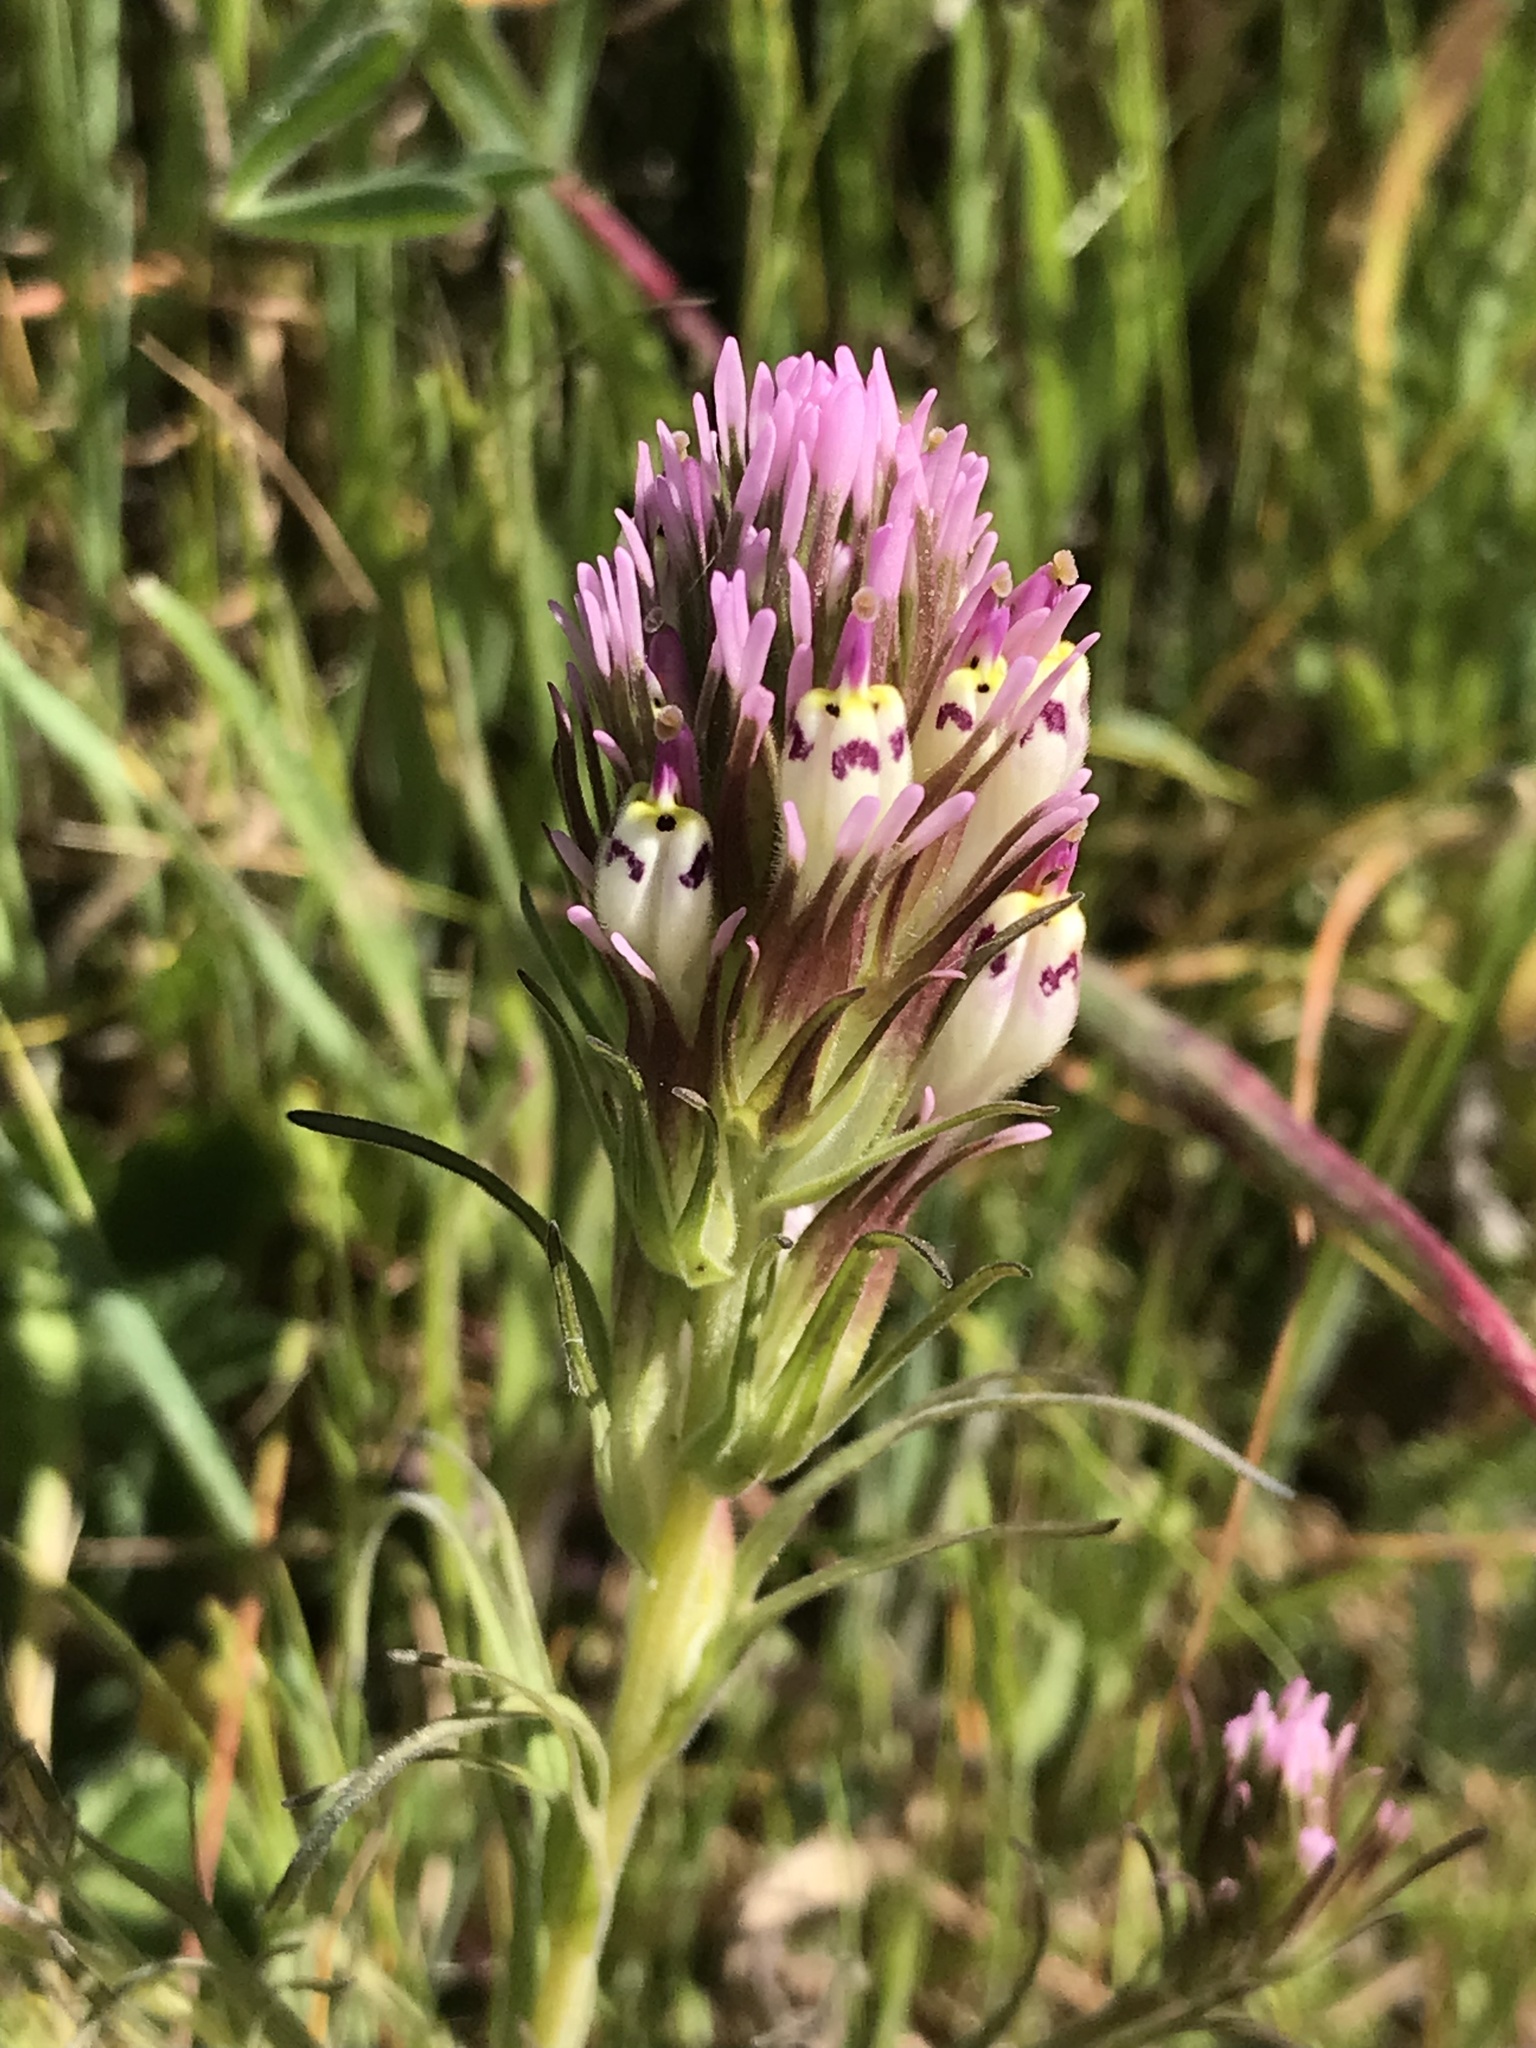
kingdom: Plantae
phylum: Tracheophyta
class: Magnoliopsida
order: Lamiales
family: Orobanchaceae
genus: Castilleja
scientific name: Castilleja densiflora
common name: Dense-flower indian paintbrush
